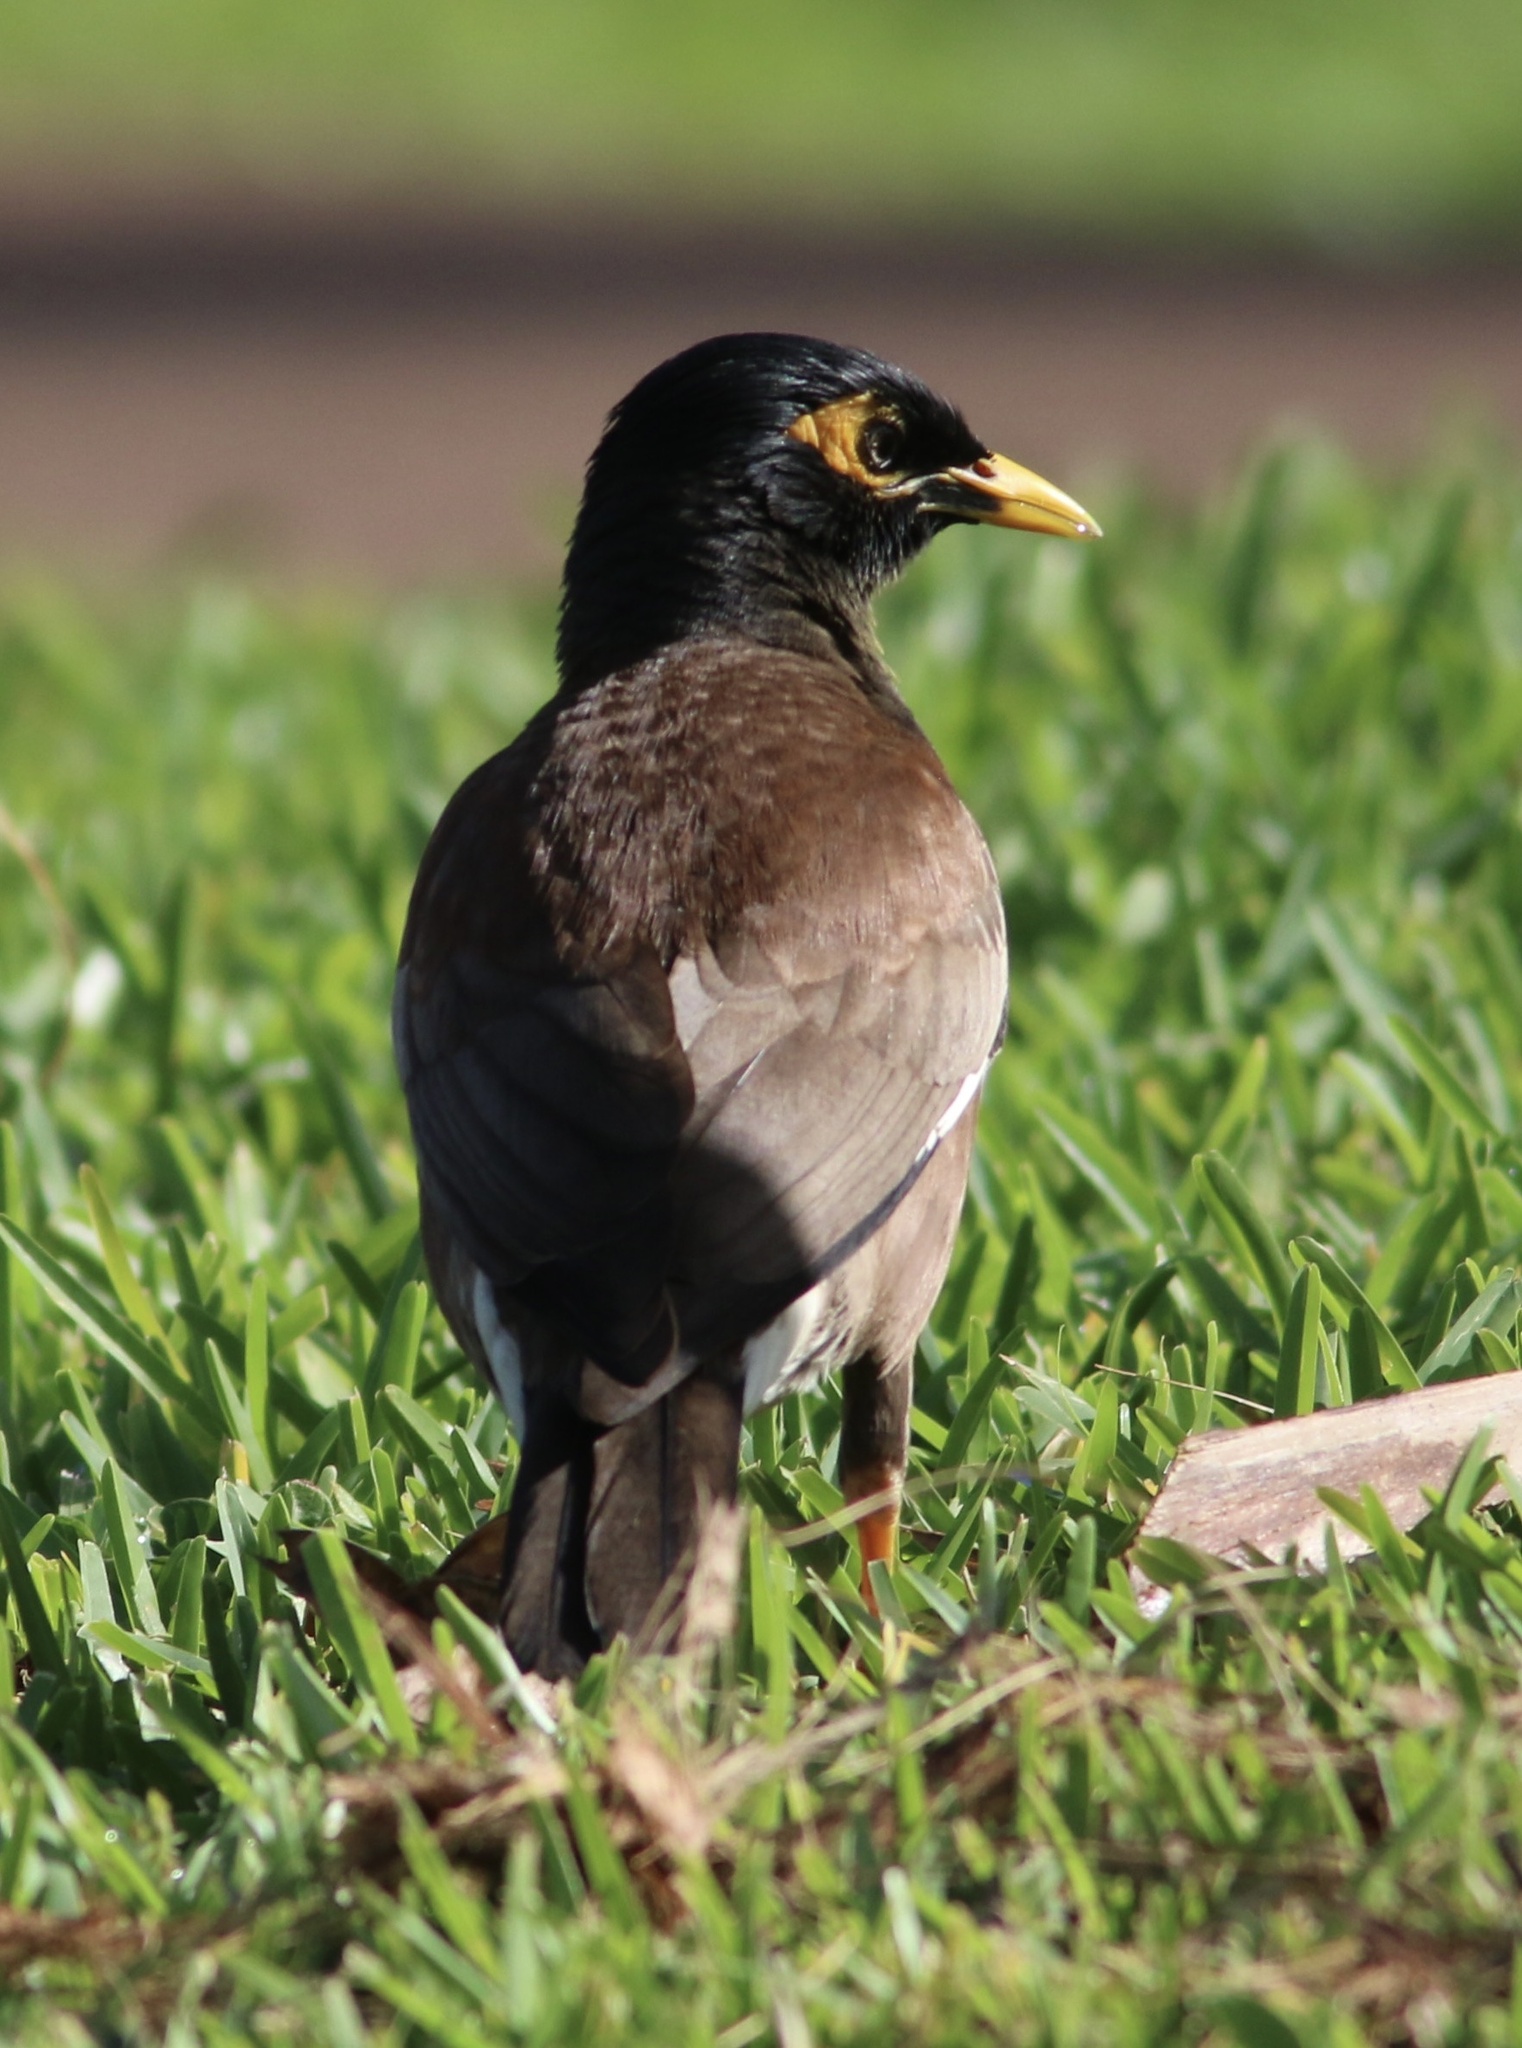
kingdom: Animalia
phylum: Chordata
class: Aves
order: Passeriformes
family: Sturnidae
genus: Acridotheres
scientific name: Acridotheres tristis
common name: Common myna
